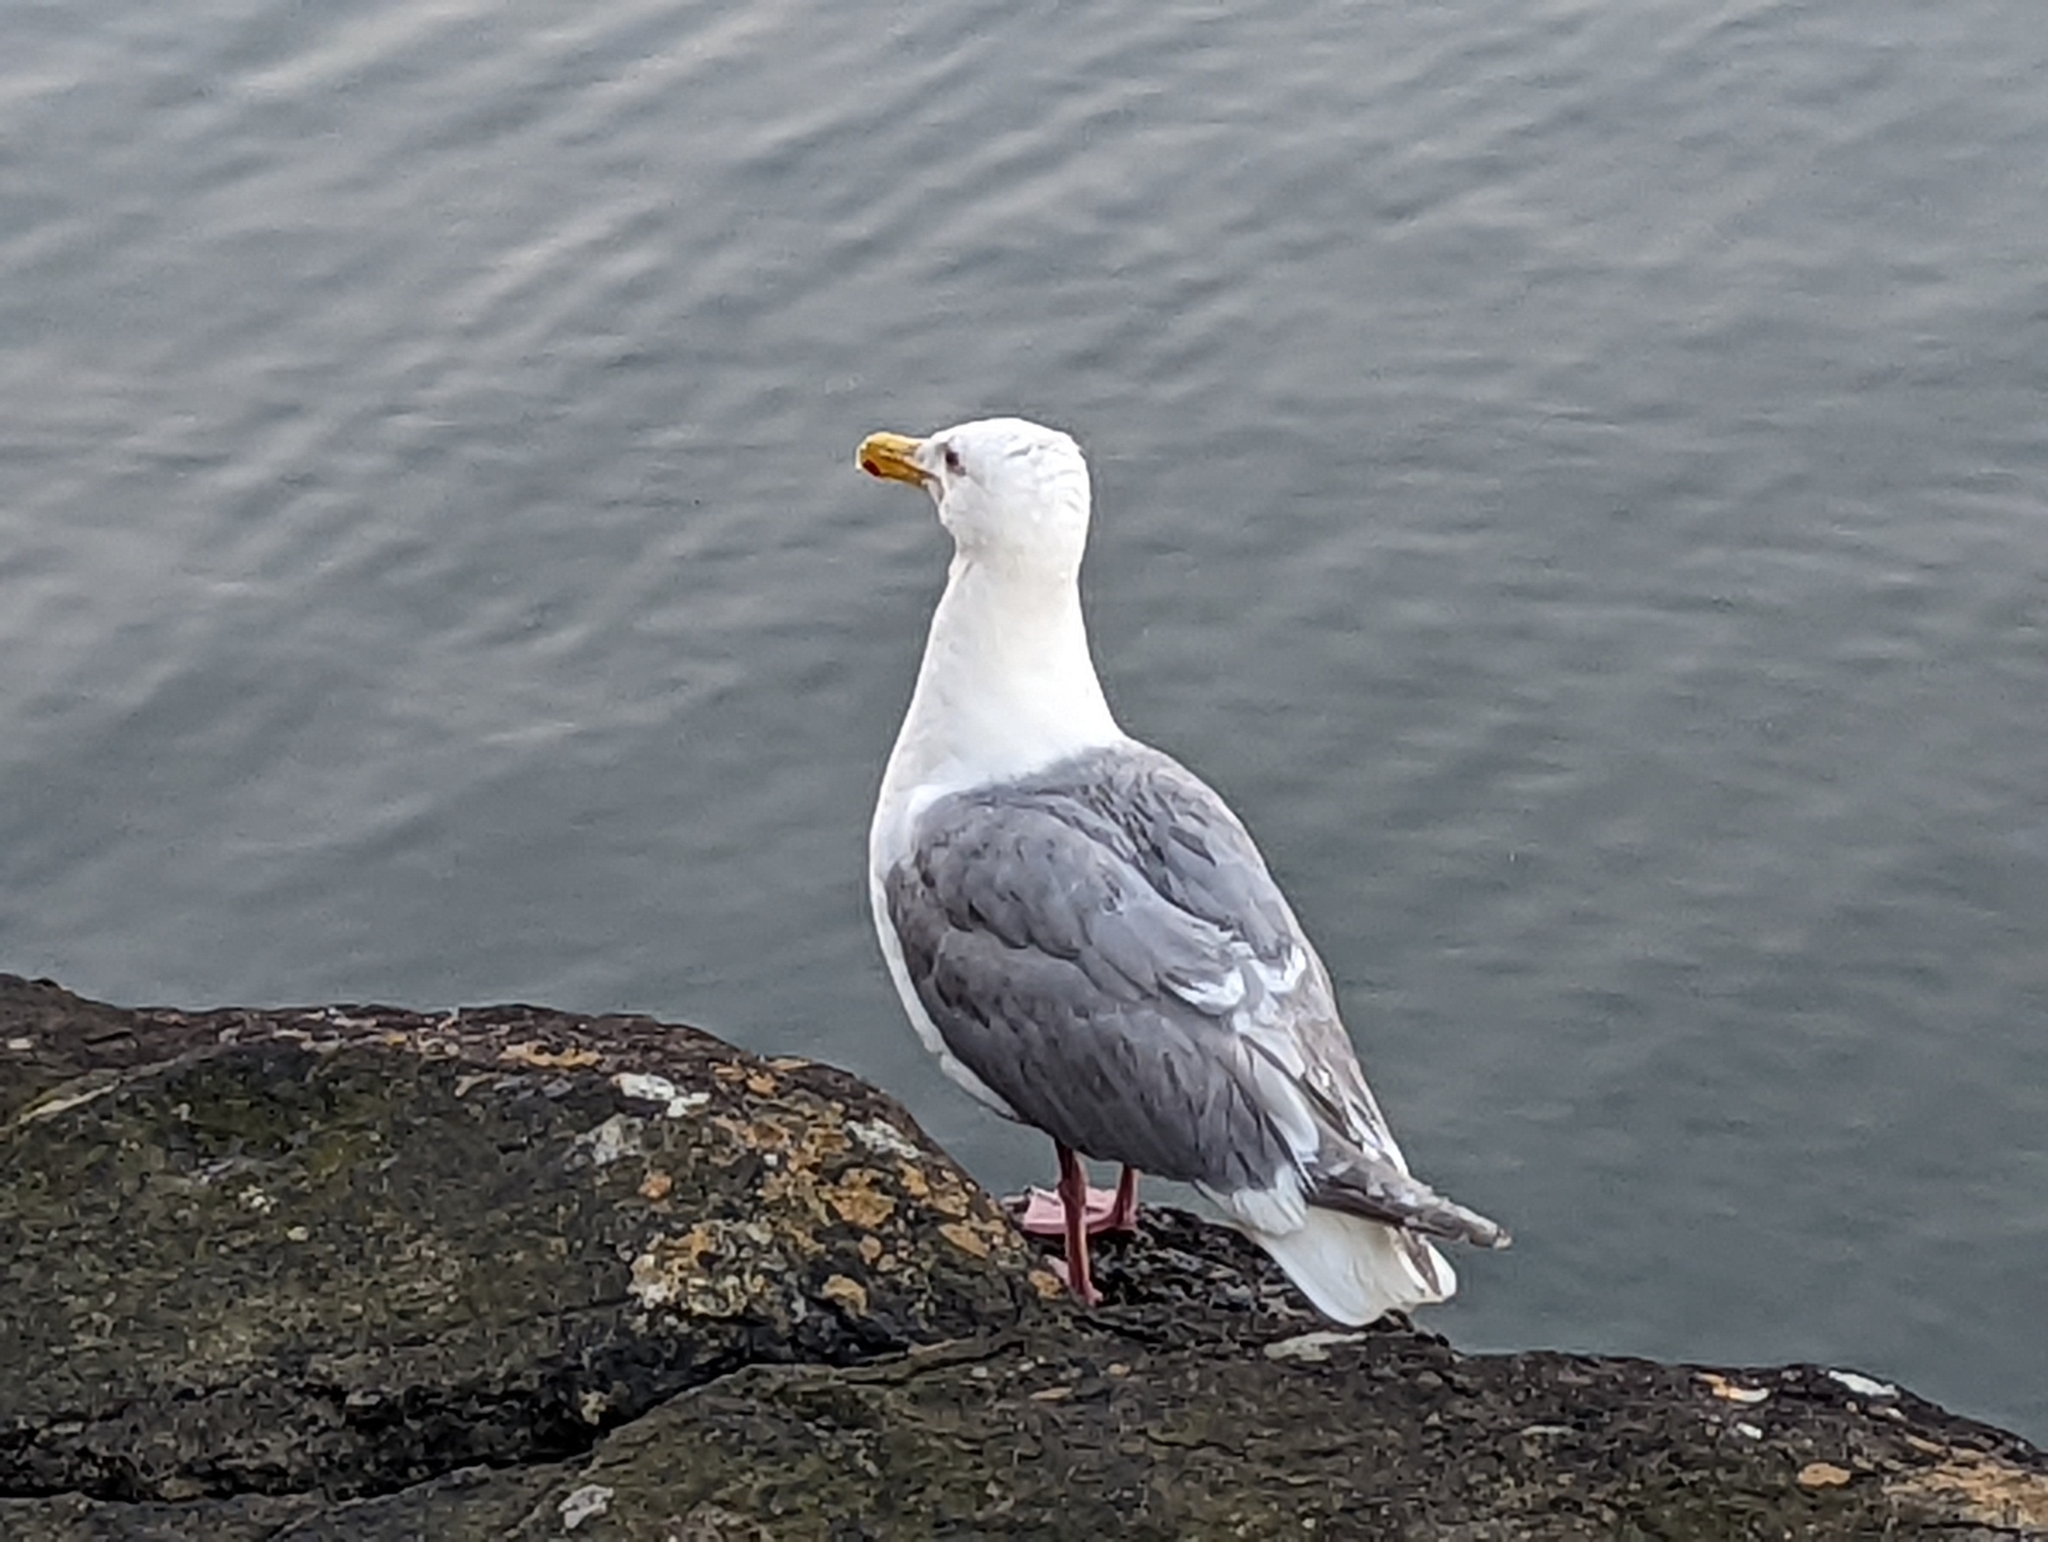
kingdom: Animalia
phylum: Chordata
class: Aves
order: Charadriiformes
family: Laridae
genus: Larus
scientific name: Larus glaucescens
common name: Glaucous-winged gull
